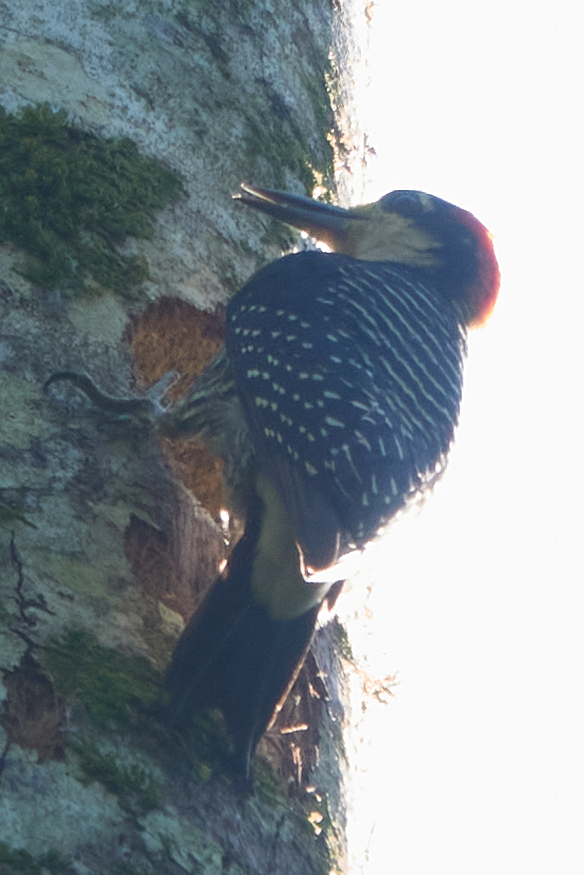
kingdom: Animalia
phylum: Chordata
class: Aves
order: Piciformes
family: Picidae
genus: Melanerpes
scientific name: Melanerpes pucherani
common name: Black-cheeked woodpecker
